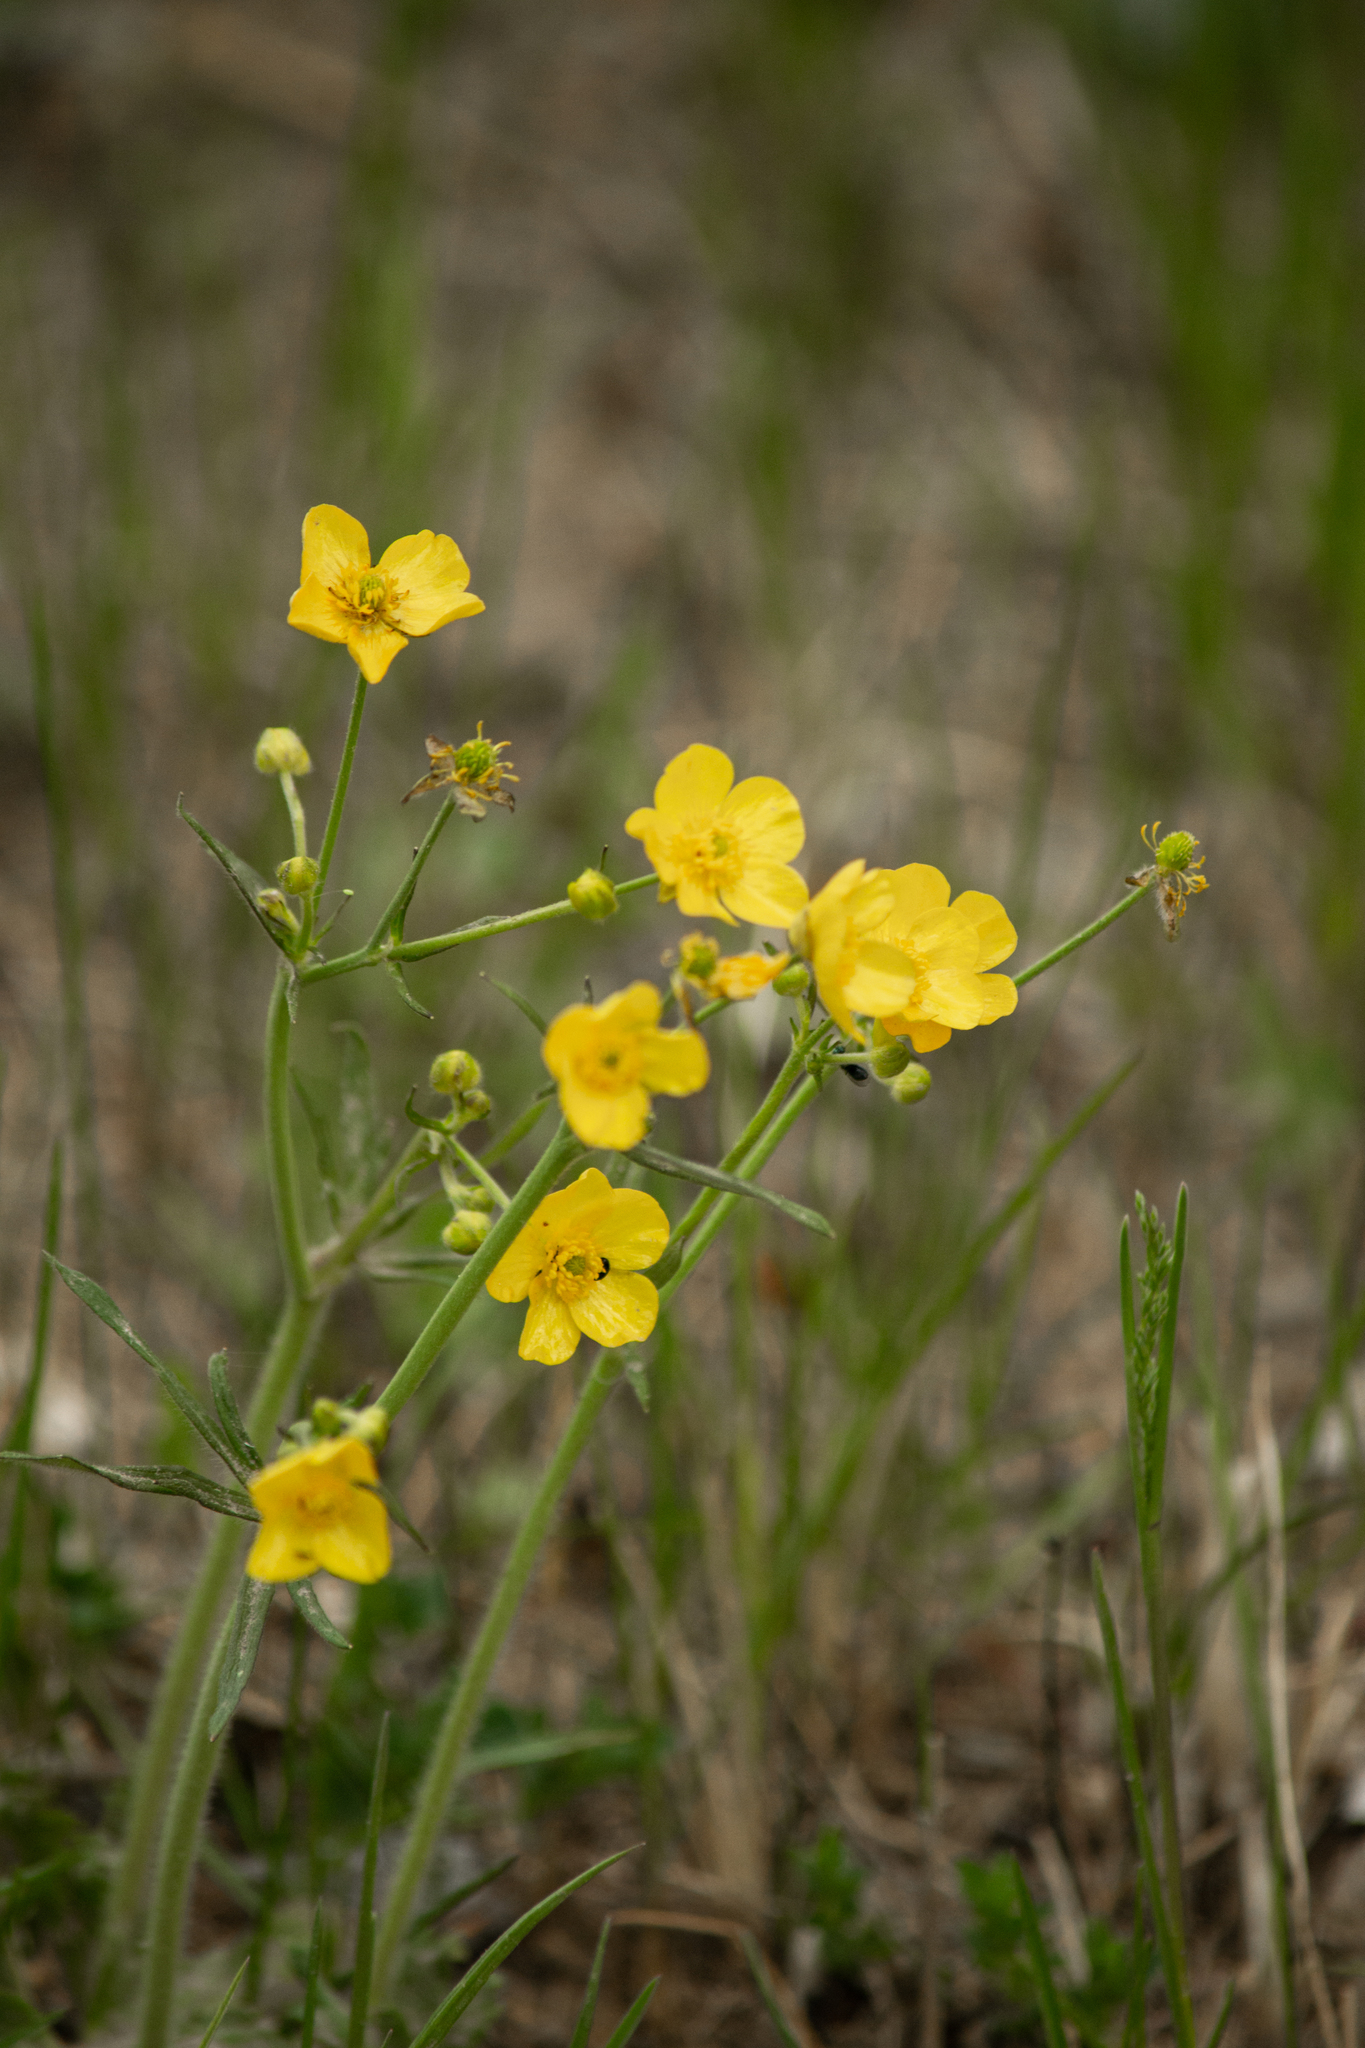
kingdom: Plantae
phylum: Tracheophyta
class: Magnoliopsida
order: Ranunculales
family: Ranunculaceae
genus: Ranunculus
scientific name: Ranunculus polyanthemos
